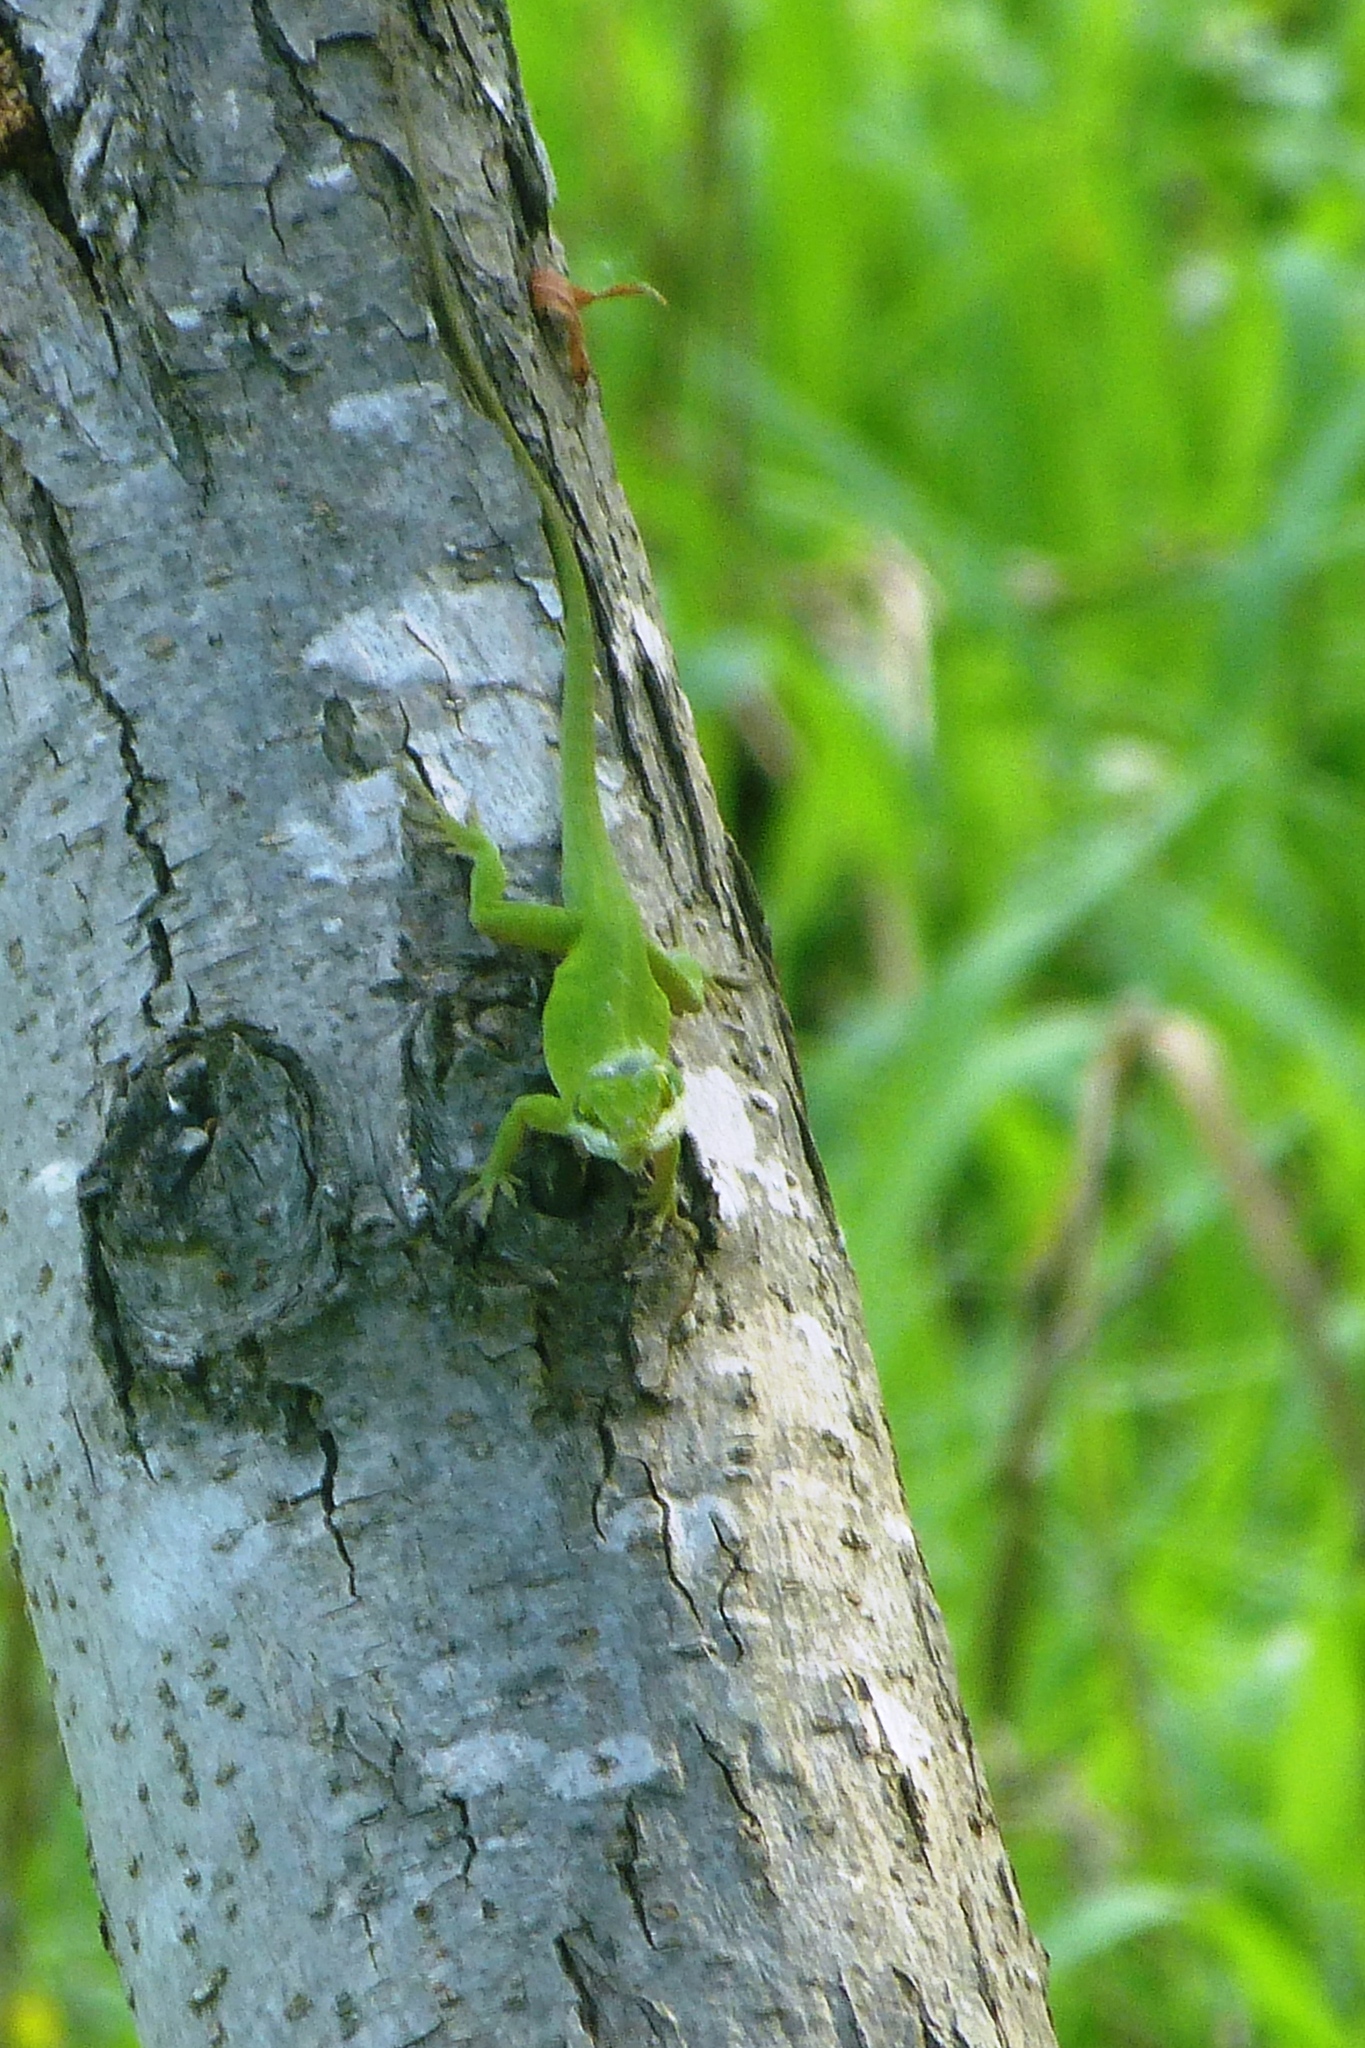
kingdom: Animalia
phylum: Chordata
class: Squamata
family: Dactyloidae
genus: Anolis
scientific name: Anolis carolinensis
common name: Green anole
